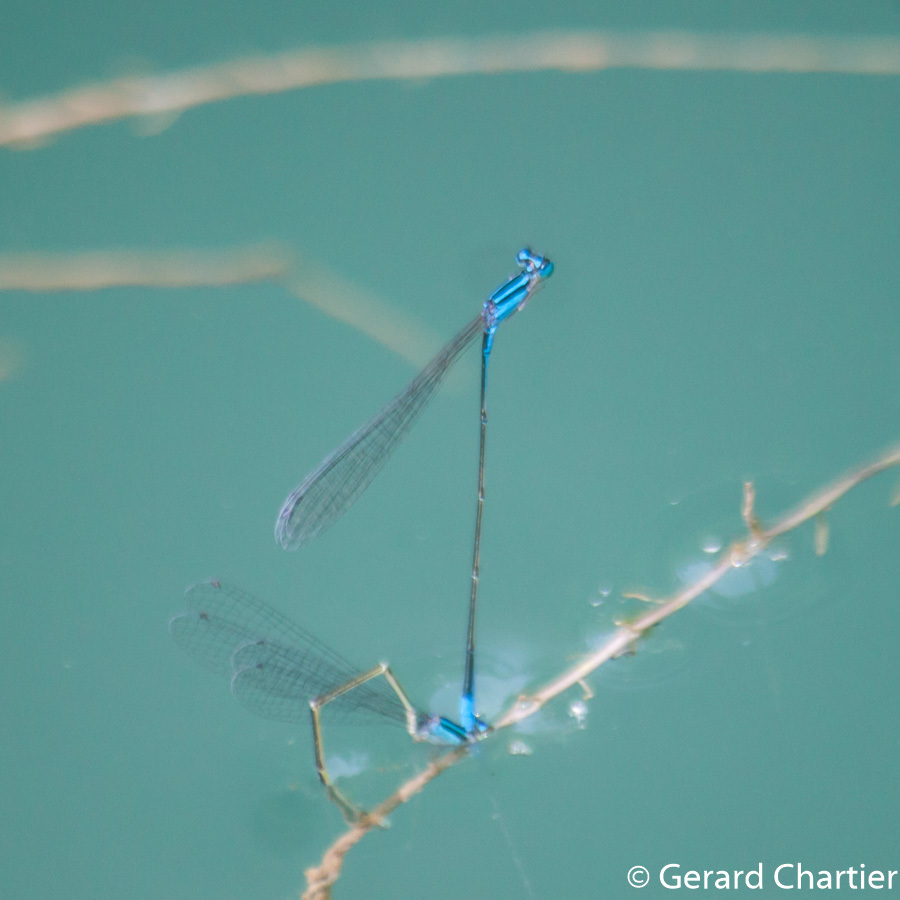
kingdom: Animalia
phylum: Arthropoda
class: Insecta
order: Odonata
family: Coenagrionidae
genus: Aciagrion
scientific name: Aciagrion hisopa
